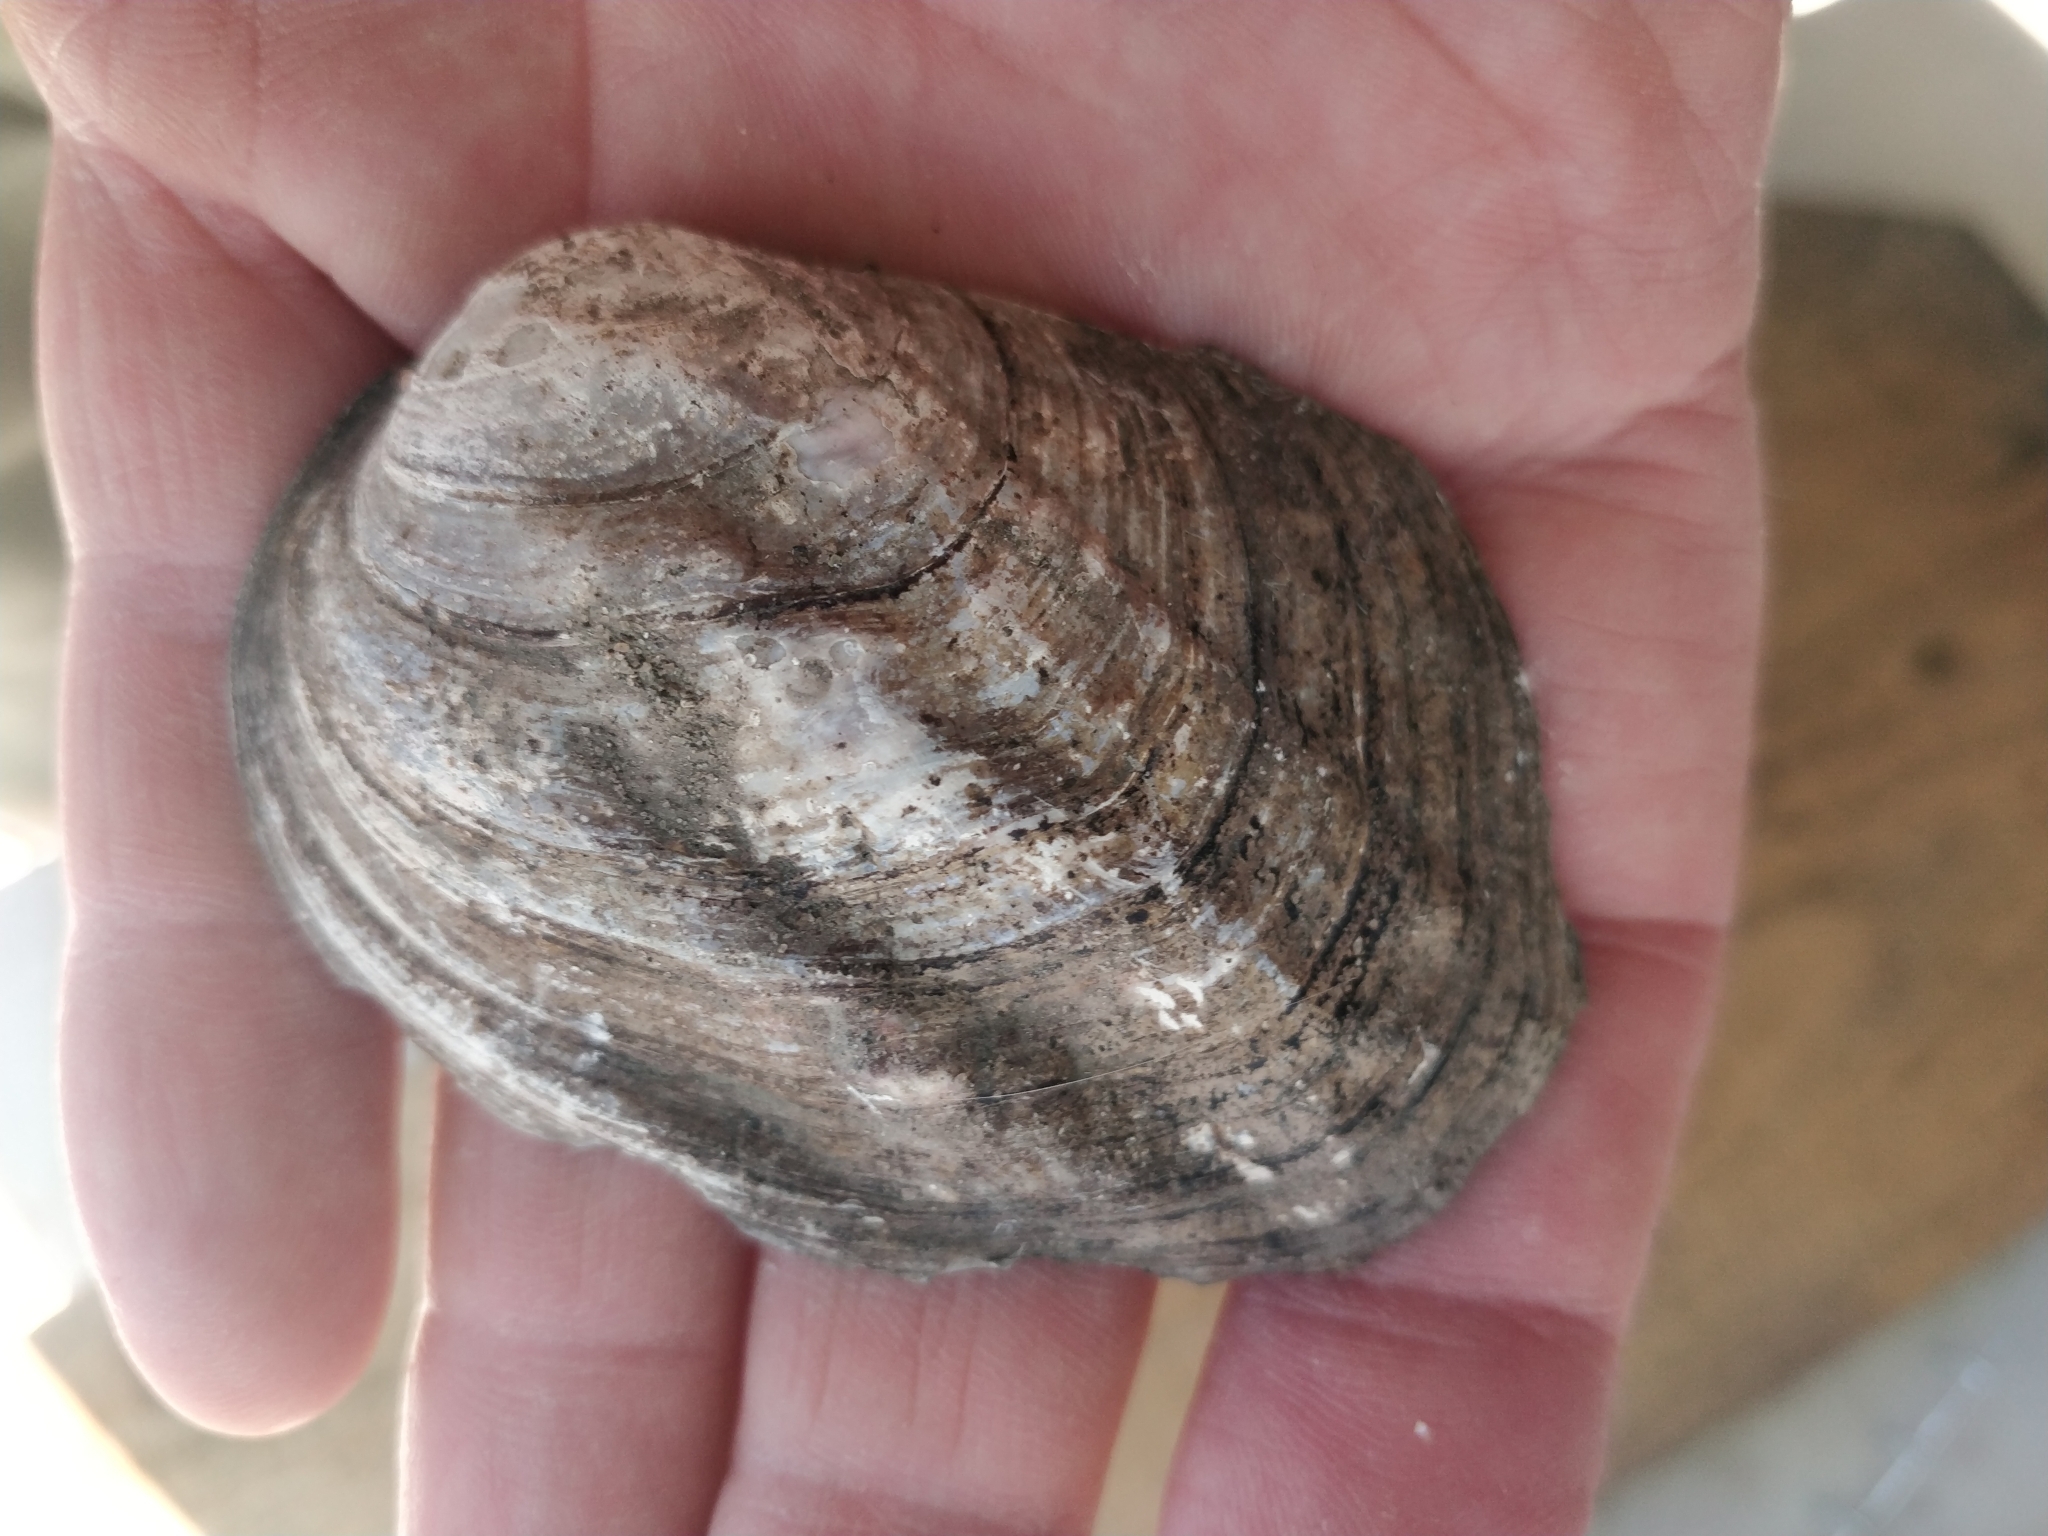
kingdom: Animalia
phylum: Mollusca
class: Bivalvia
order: Unionida
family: Unionidae
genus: Amblema
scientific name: Amblema plicata
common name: Threeridge
